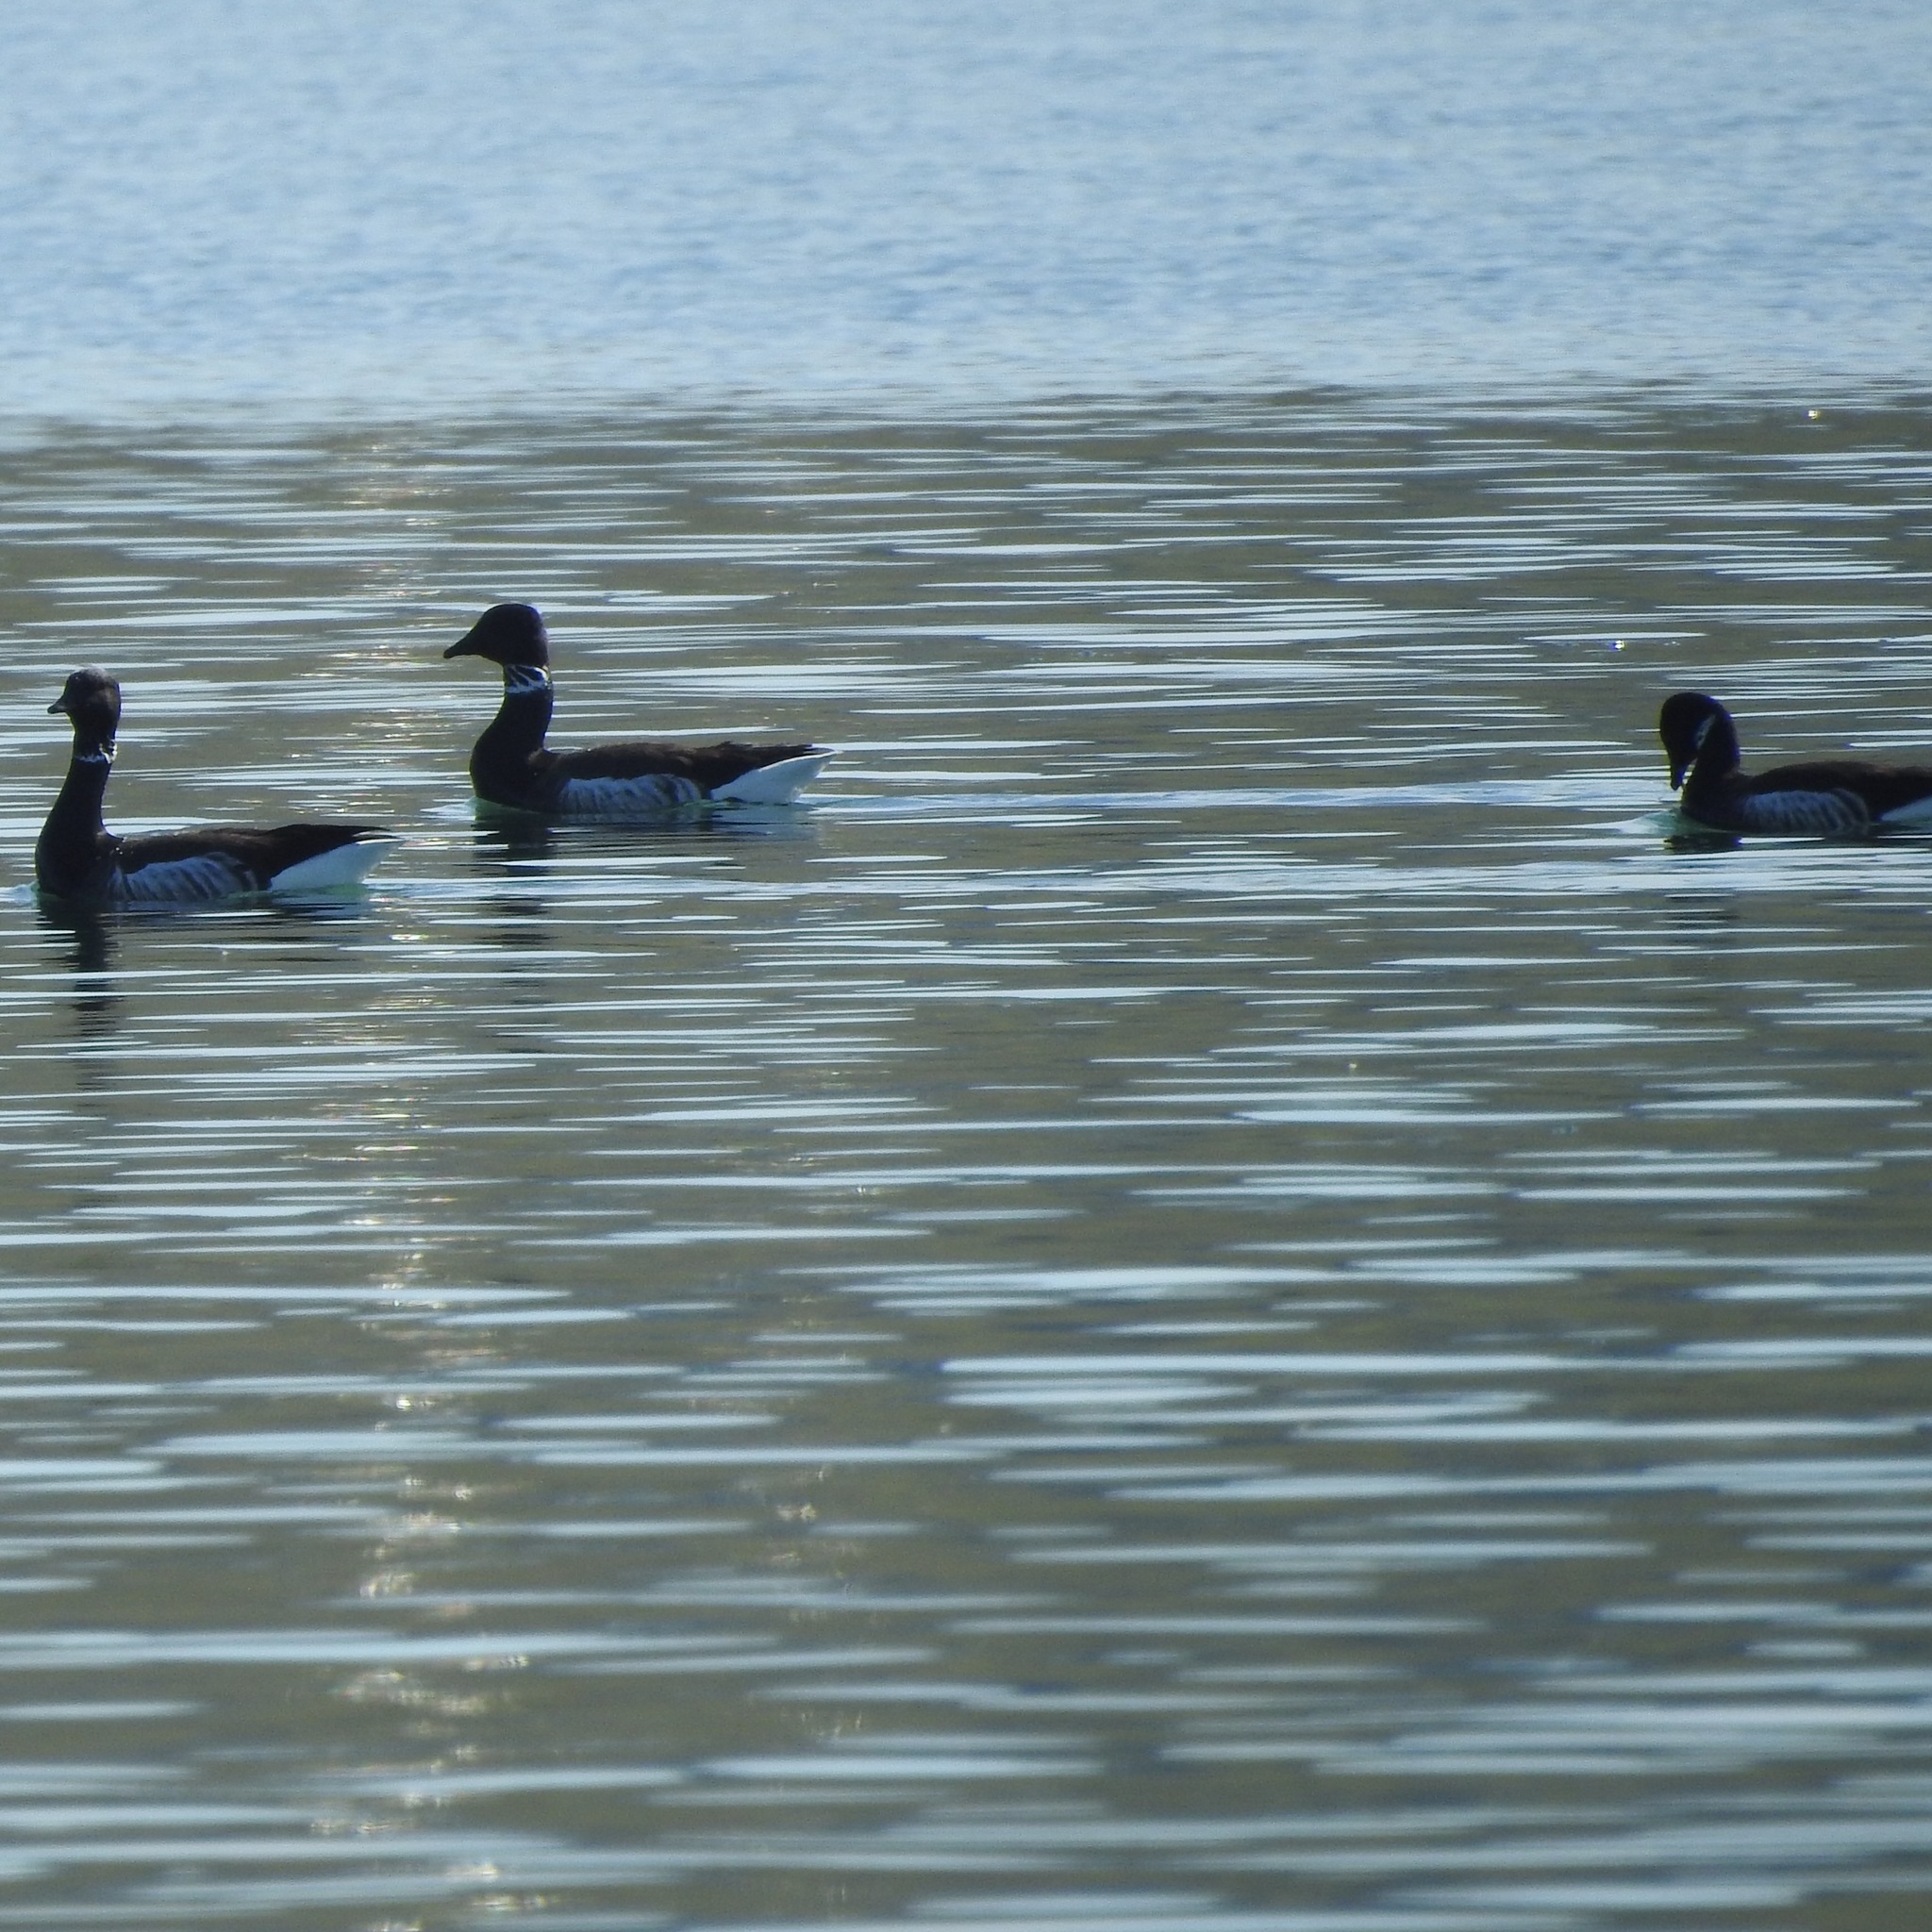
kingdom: Animalia
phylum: Chordata
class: Aves
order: Anseriformes
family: Anatidae
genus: Branta
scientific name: Branta bernicla
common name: Brant goose
